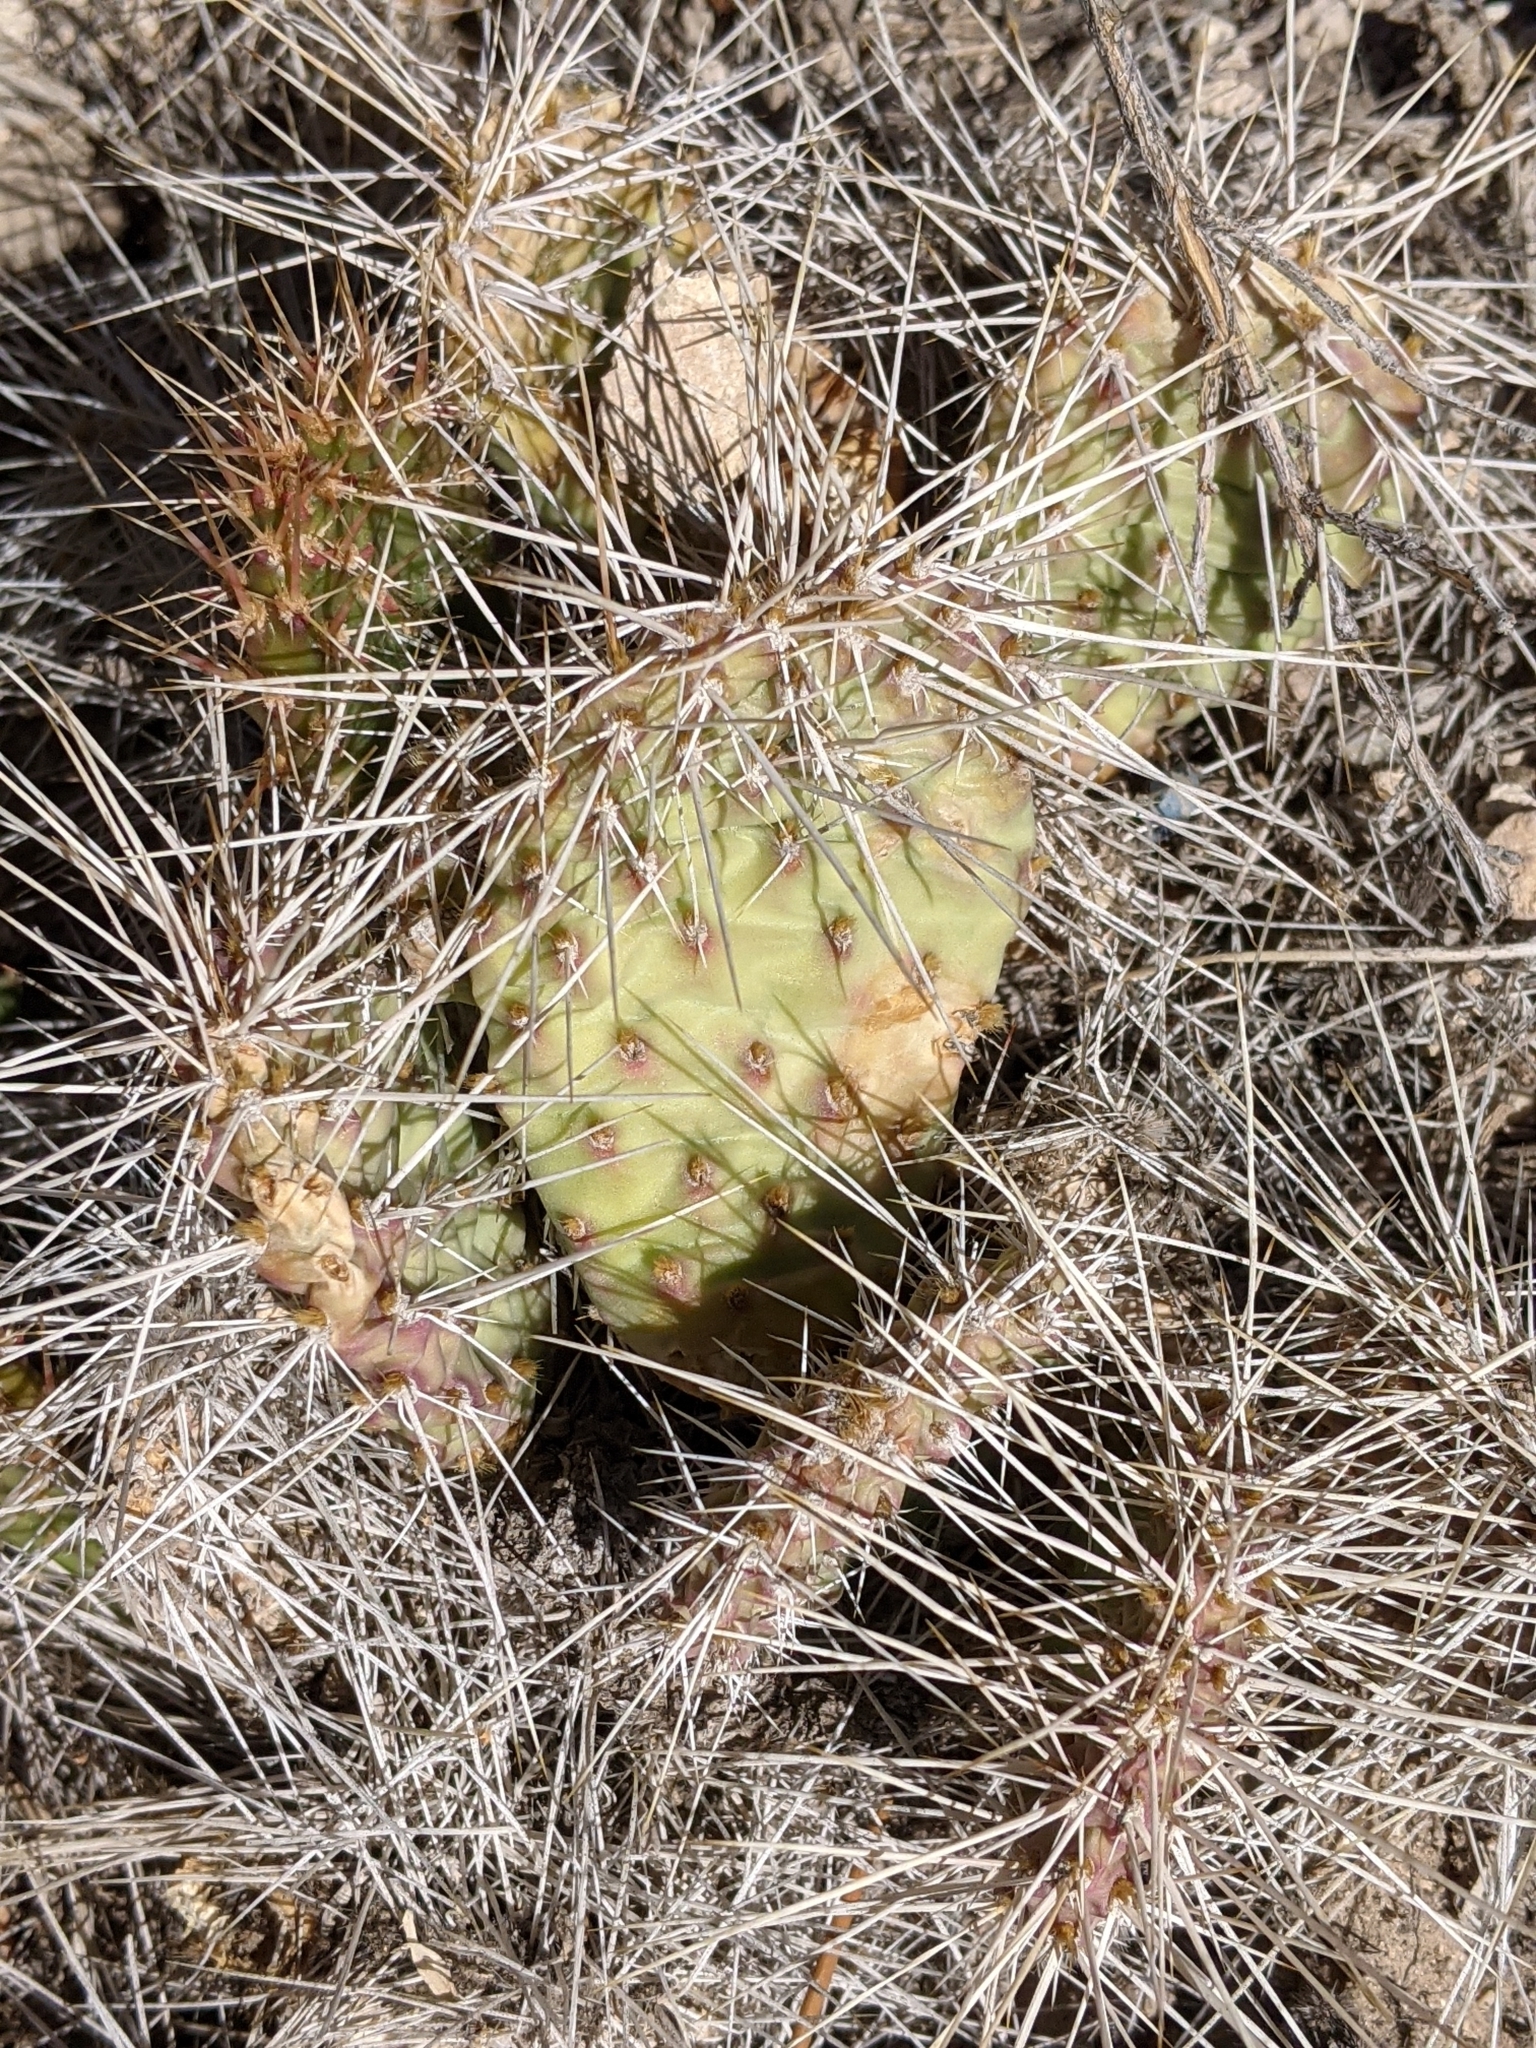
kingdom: Plantae
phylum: Tracheophyta
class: Magnoliopsida
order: Caryophyllales
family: Cactaceae
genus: Opuntia
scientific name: Opuntia polyacantha
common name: Plains prickly-pear
